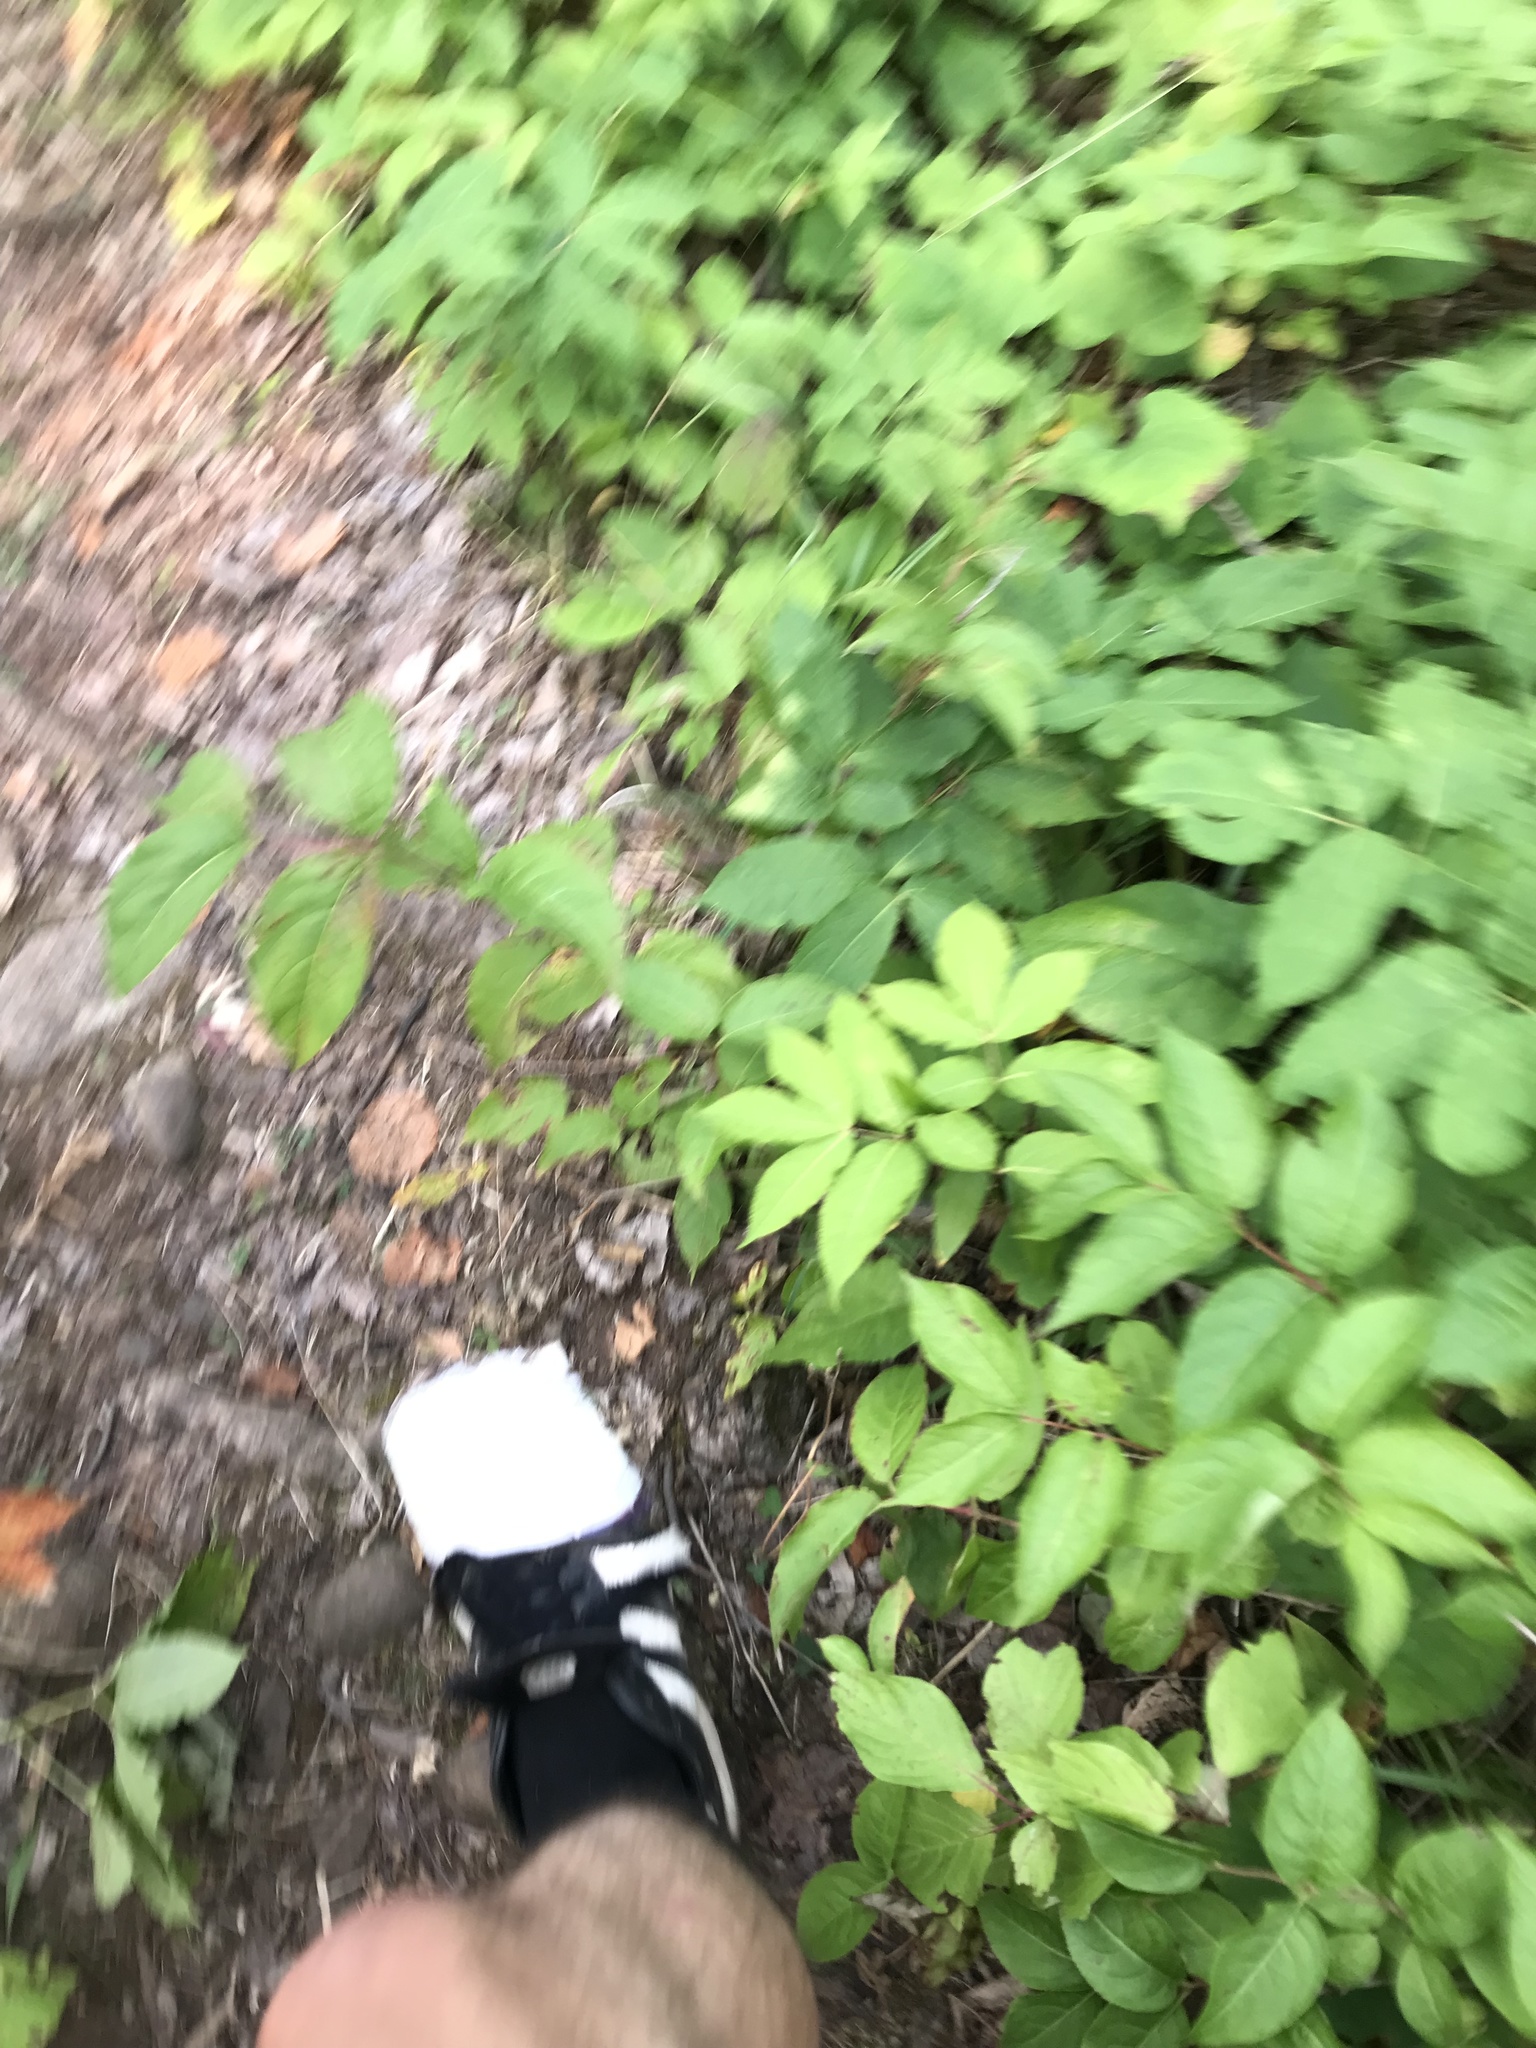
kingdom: Plantae
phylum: Tracheophyta
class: Magnoliopsida
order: Dipsacales
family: Caprifoliaceae
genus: Diervilla
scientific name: Diervilla lonicera
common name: Bush-honeysuckle
